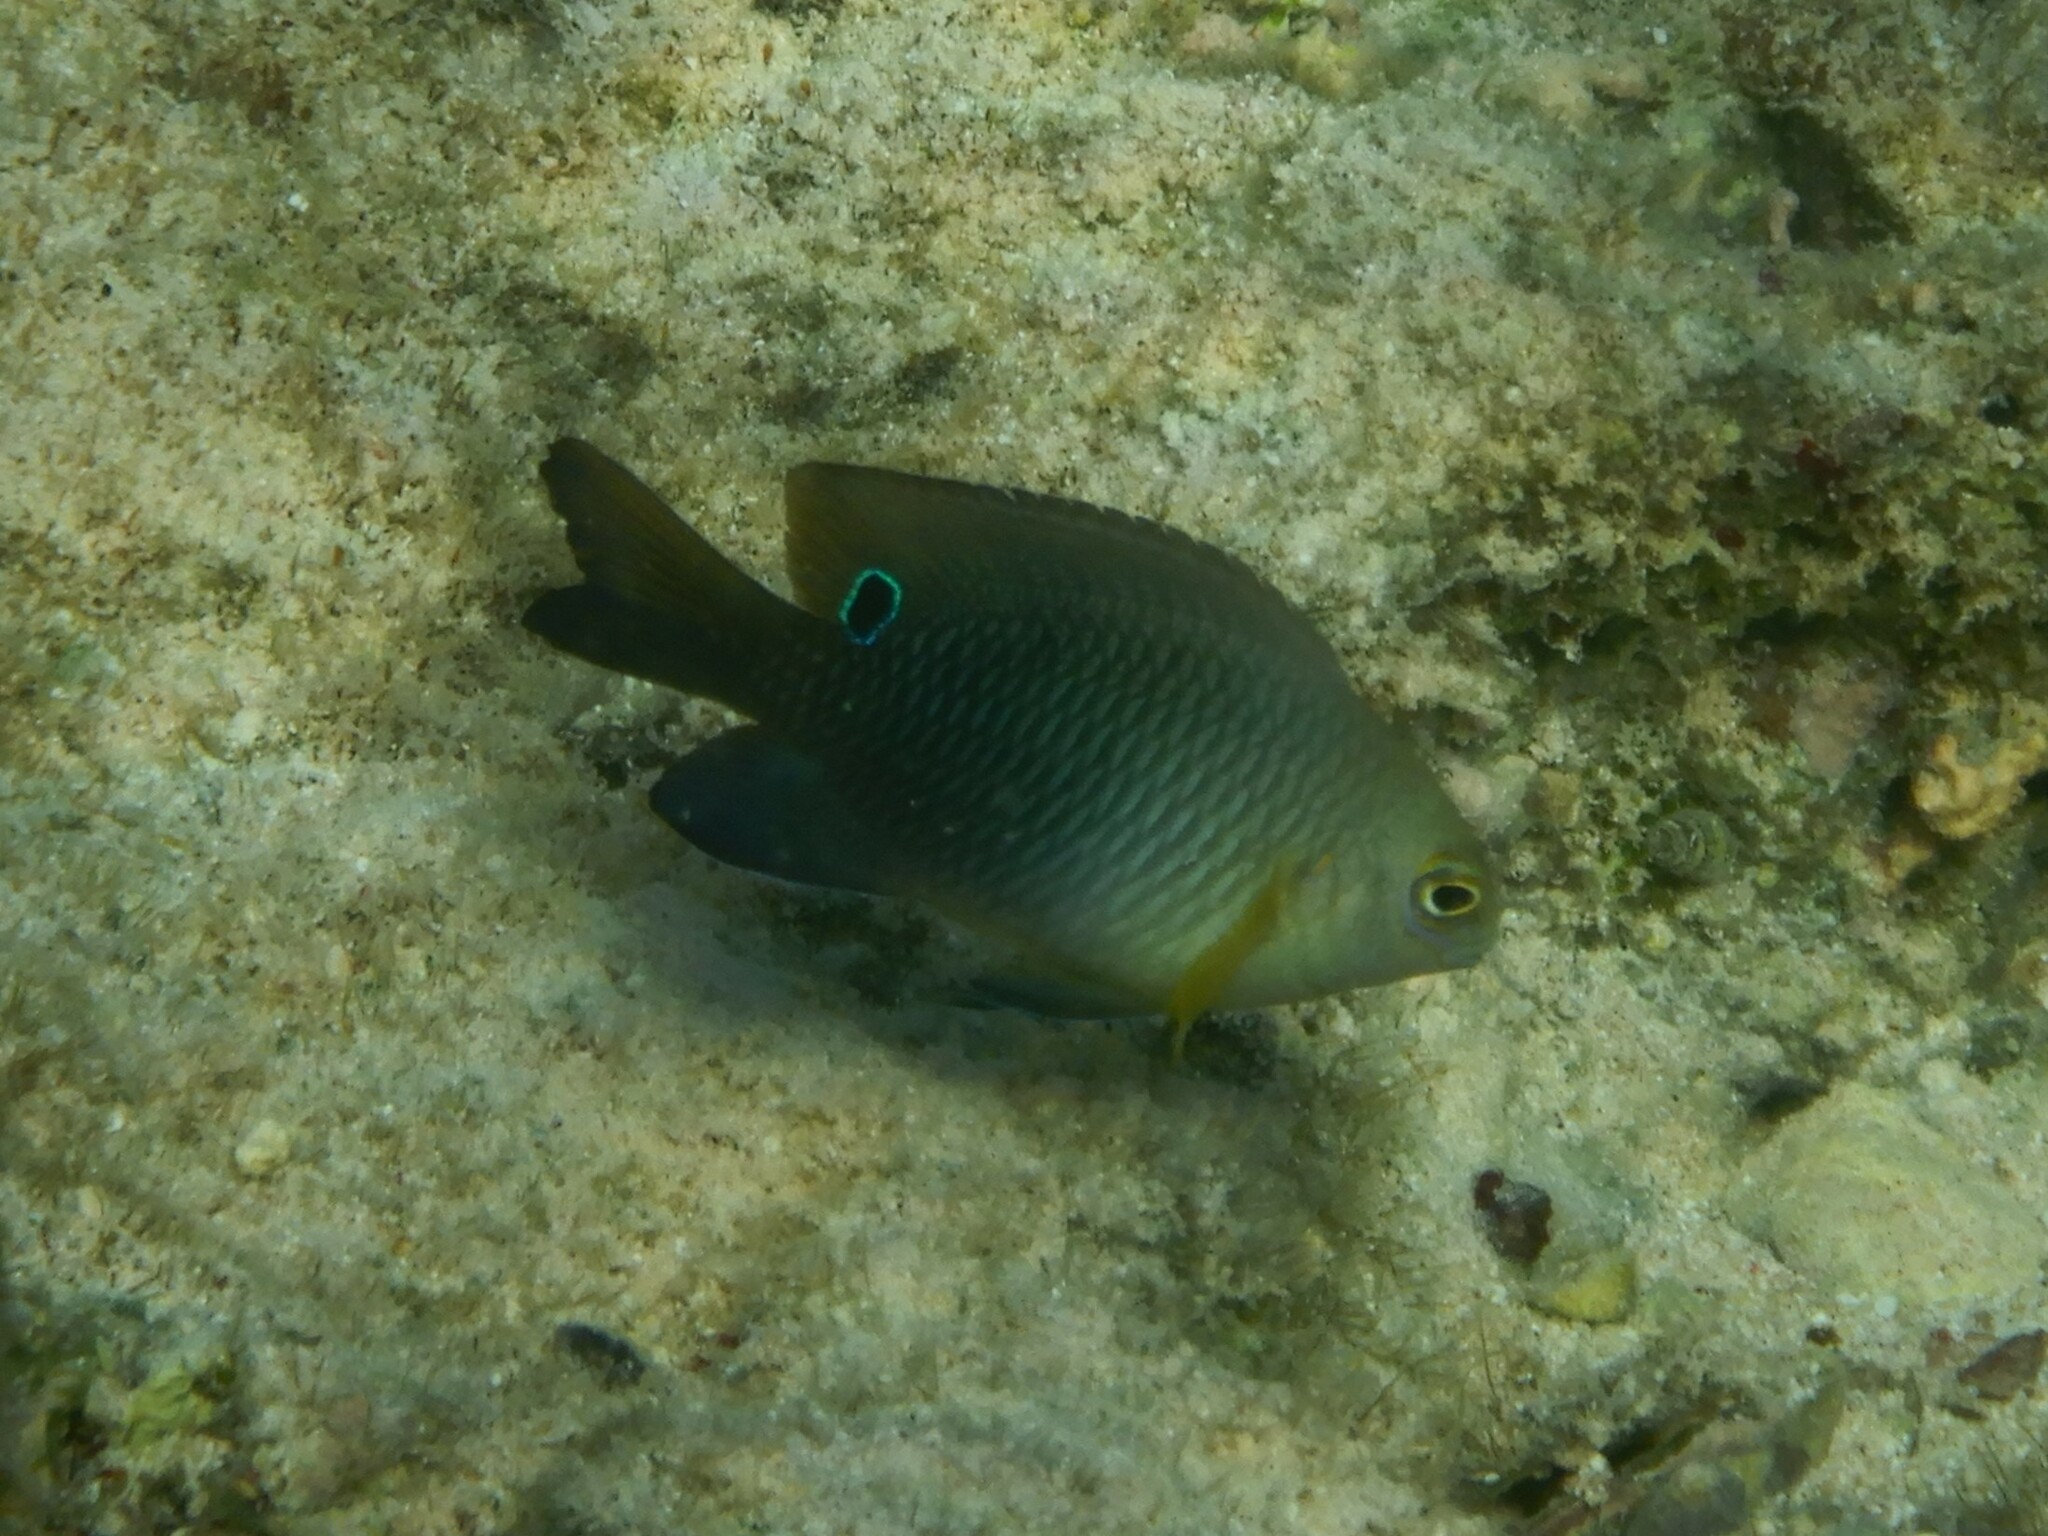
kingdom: Animalia
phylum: Chordata
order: Perciformes
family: Pomacentridae
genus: Chrysiptera
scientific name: Chrysiptera unimaculata
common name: Onespot demoiselle
